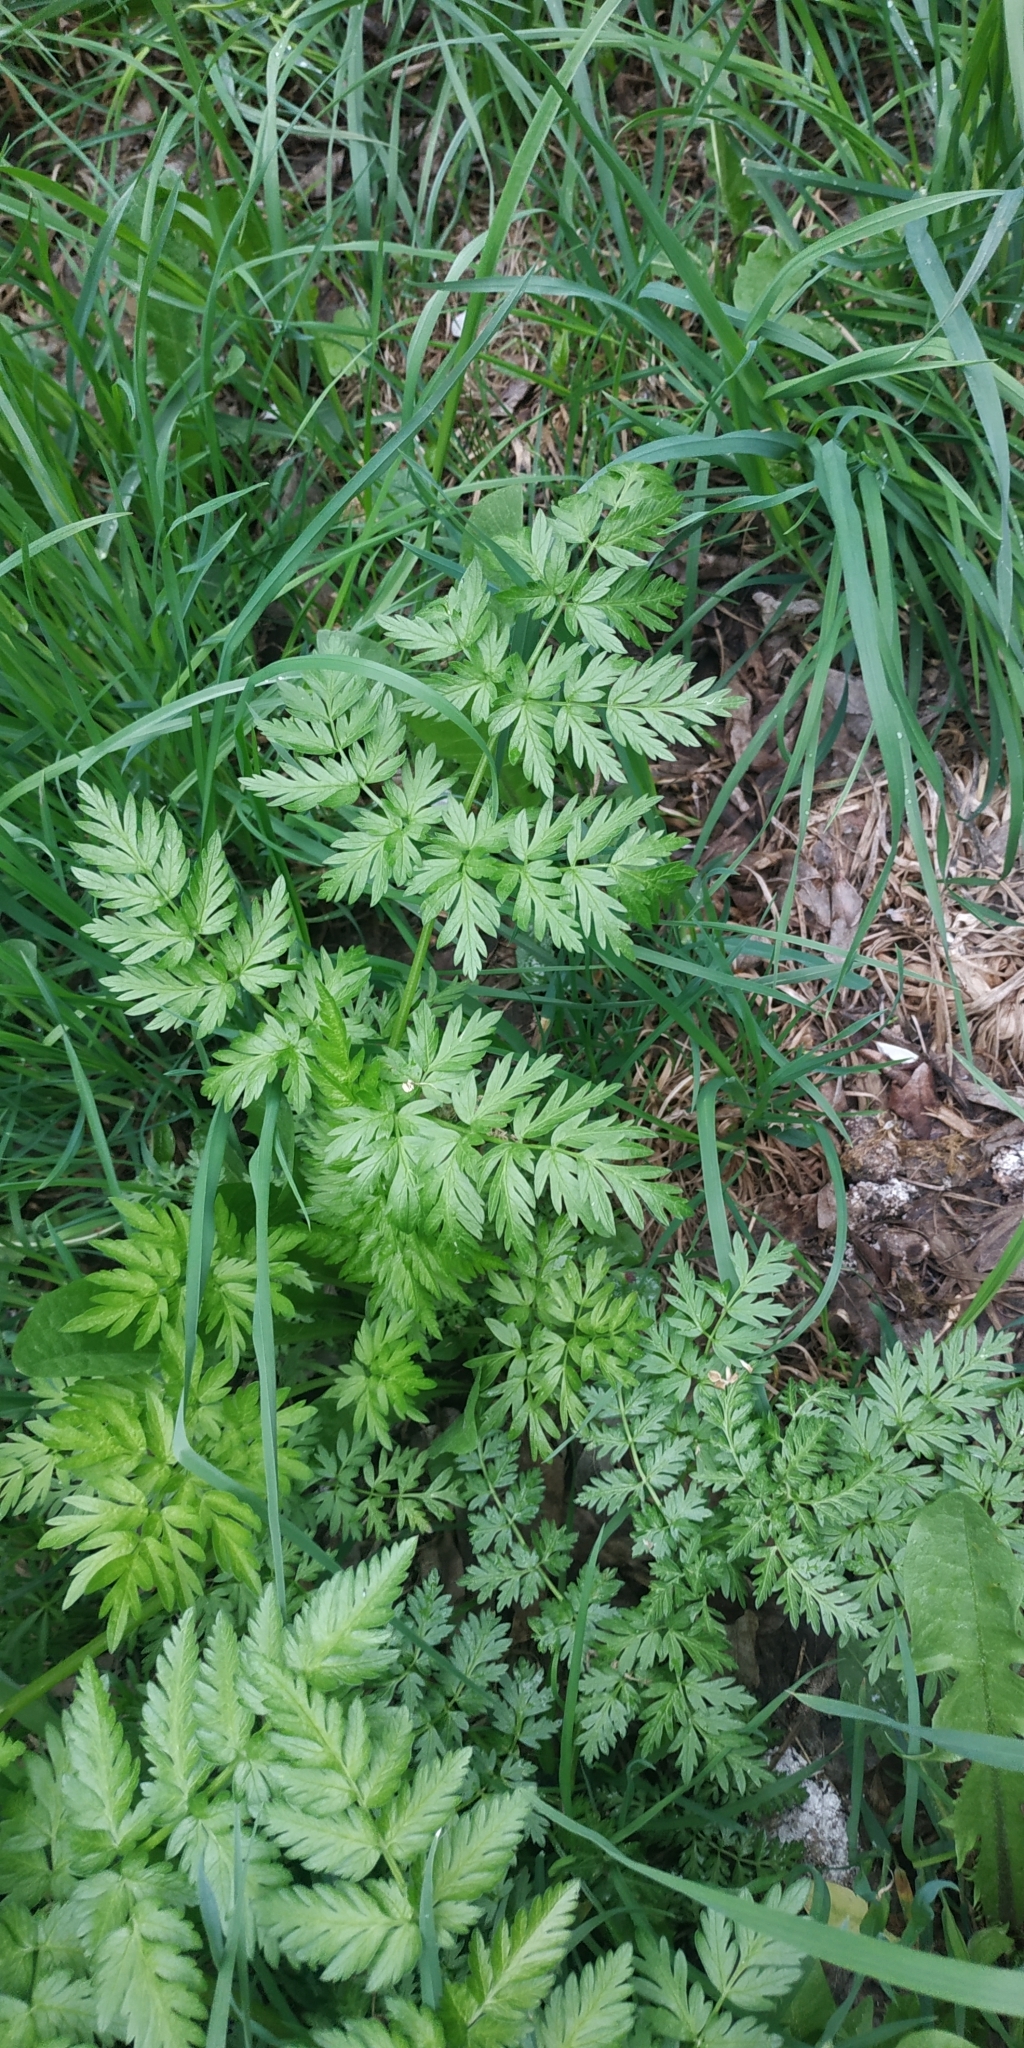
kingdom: Plantae
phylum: Tracheophyta
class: Magnoliopsida
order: Apiales
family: Apiaceae
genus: Anthriscus
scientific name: Anthriscus sylvestris
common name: Cow parsley
